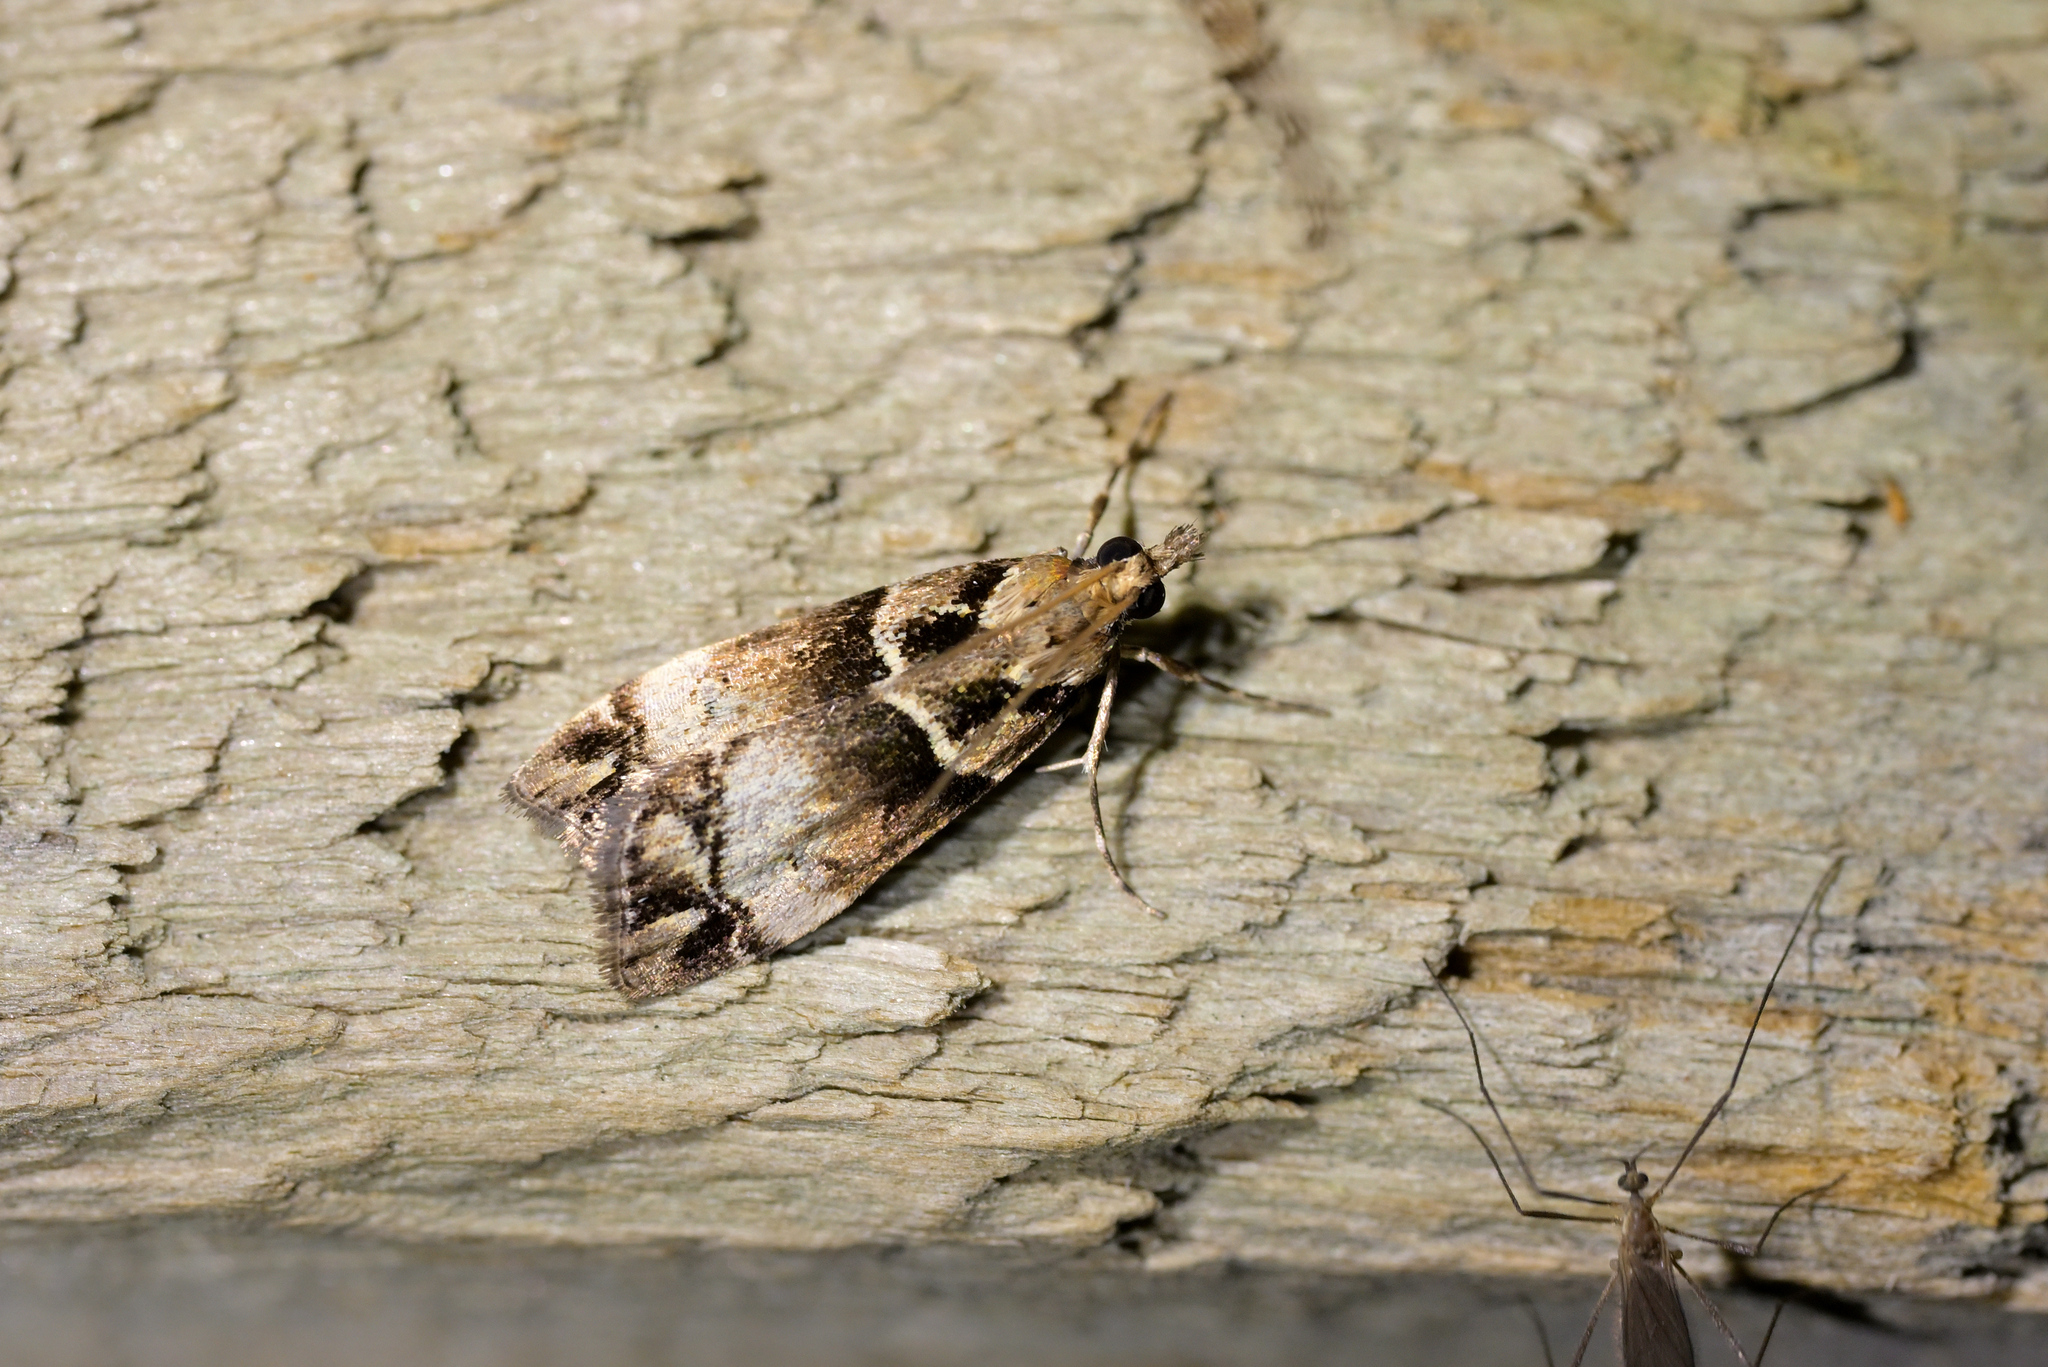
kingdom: Animalia
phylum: Arthropoda
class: Insecta
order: Lepidoptera
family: Crambidae
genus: Eudonia
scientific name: Eudonia periphanes
